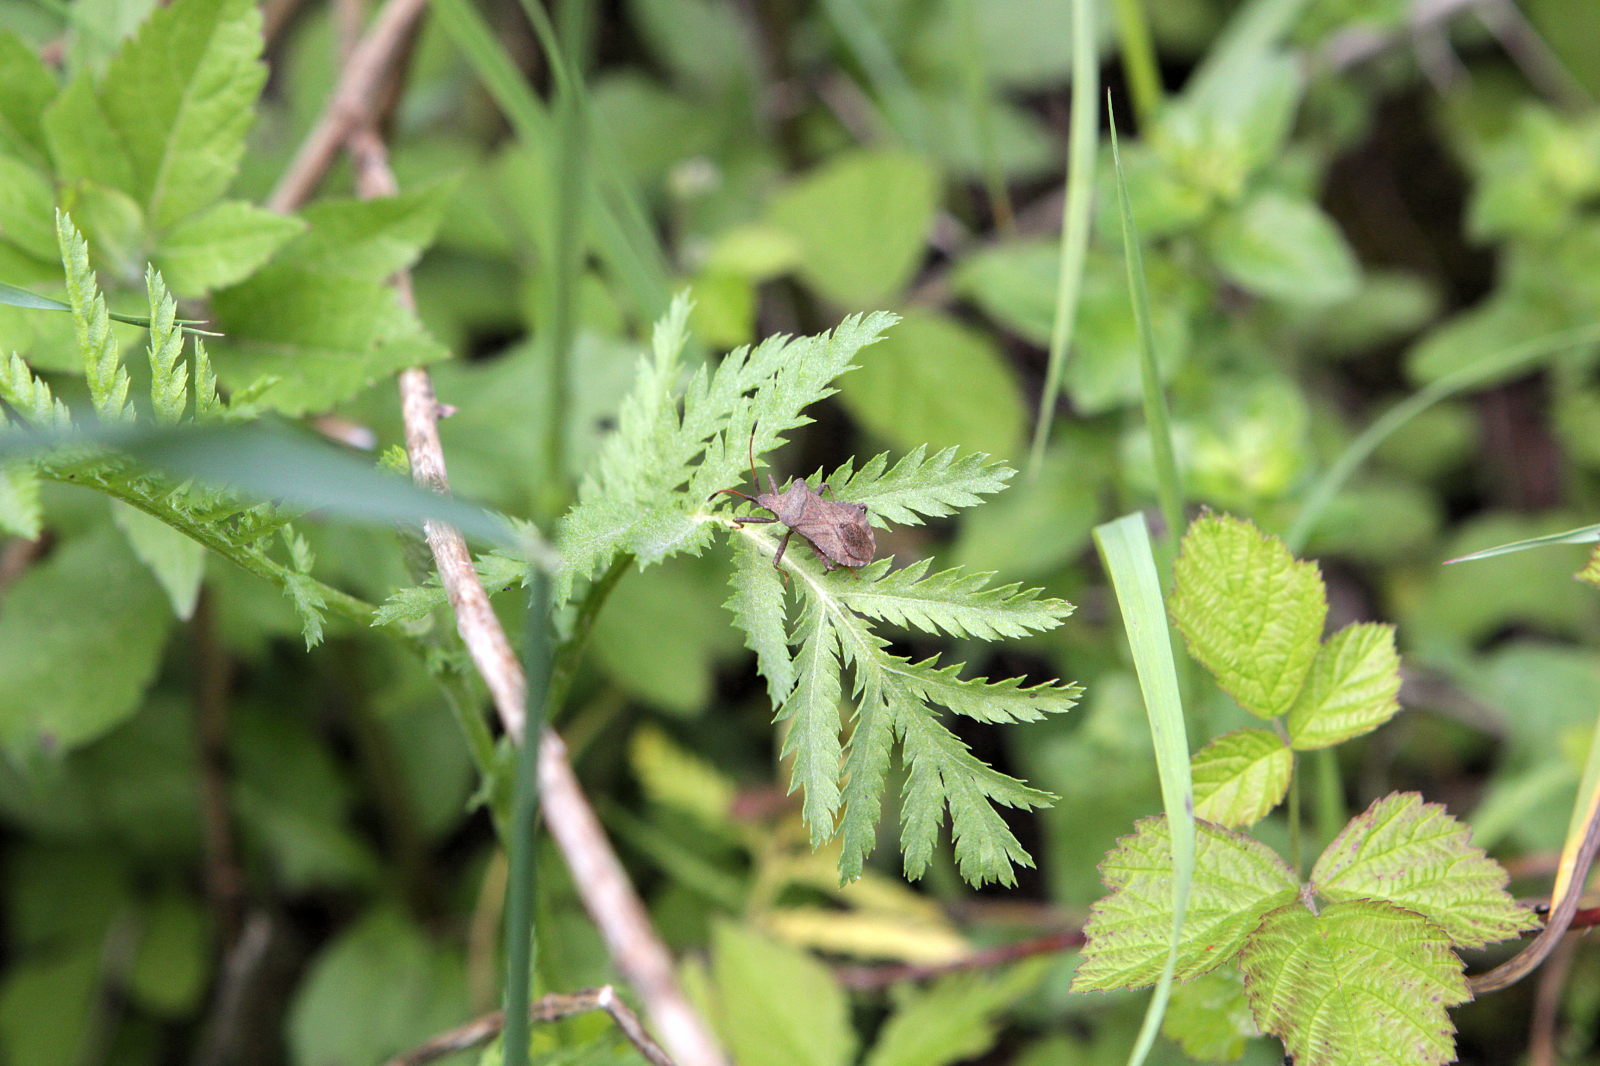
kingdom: Animalia
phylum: Arthropoda
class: Insecta
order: Hemiptera
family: Coreidae
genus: Coreus
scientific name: Coreus marginatus
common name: Dock bug
